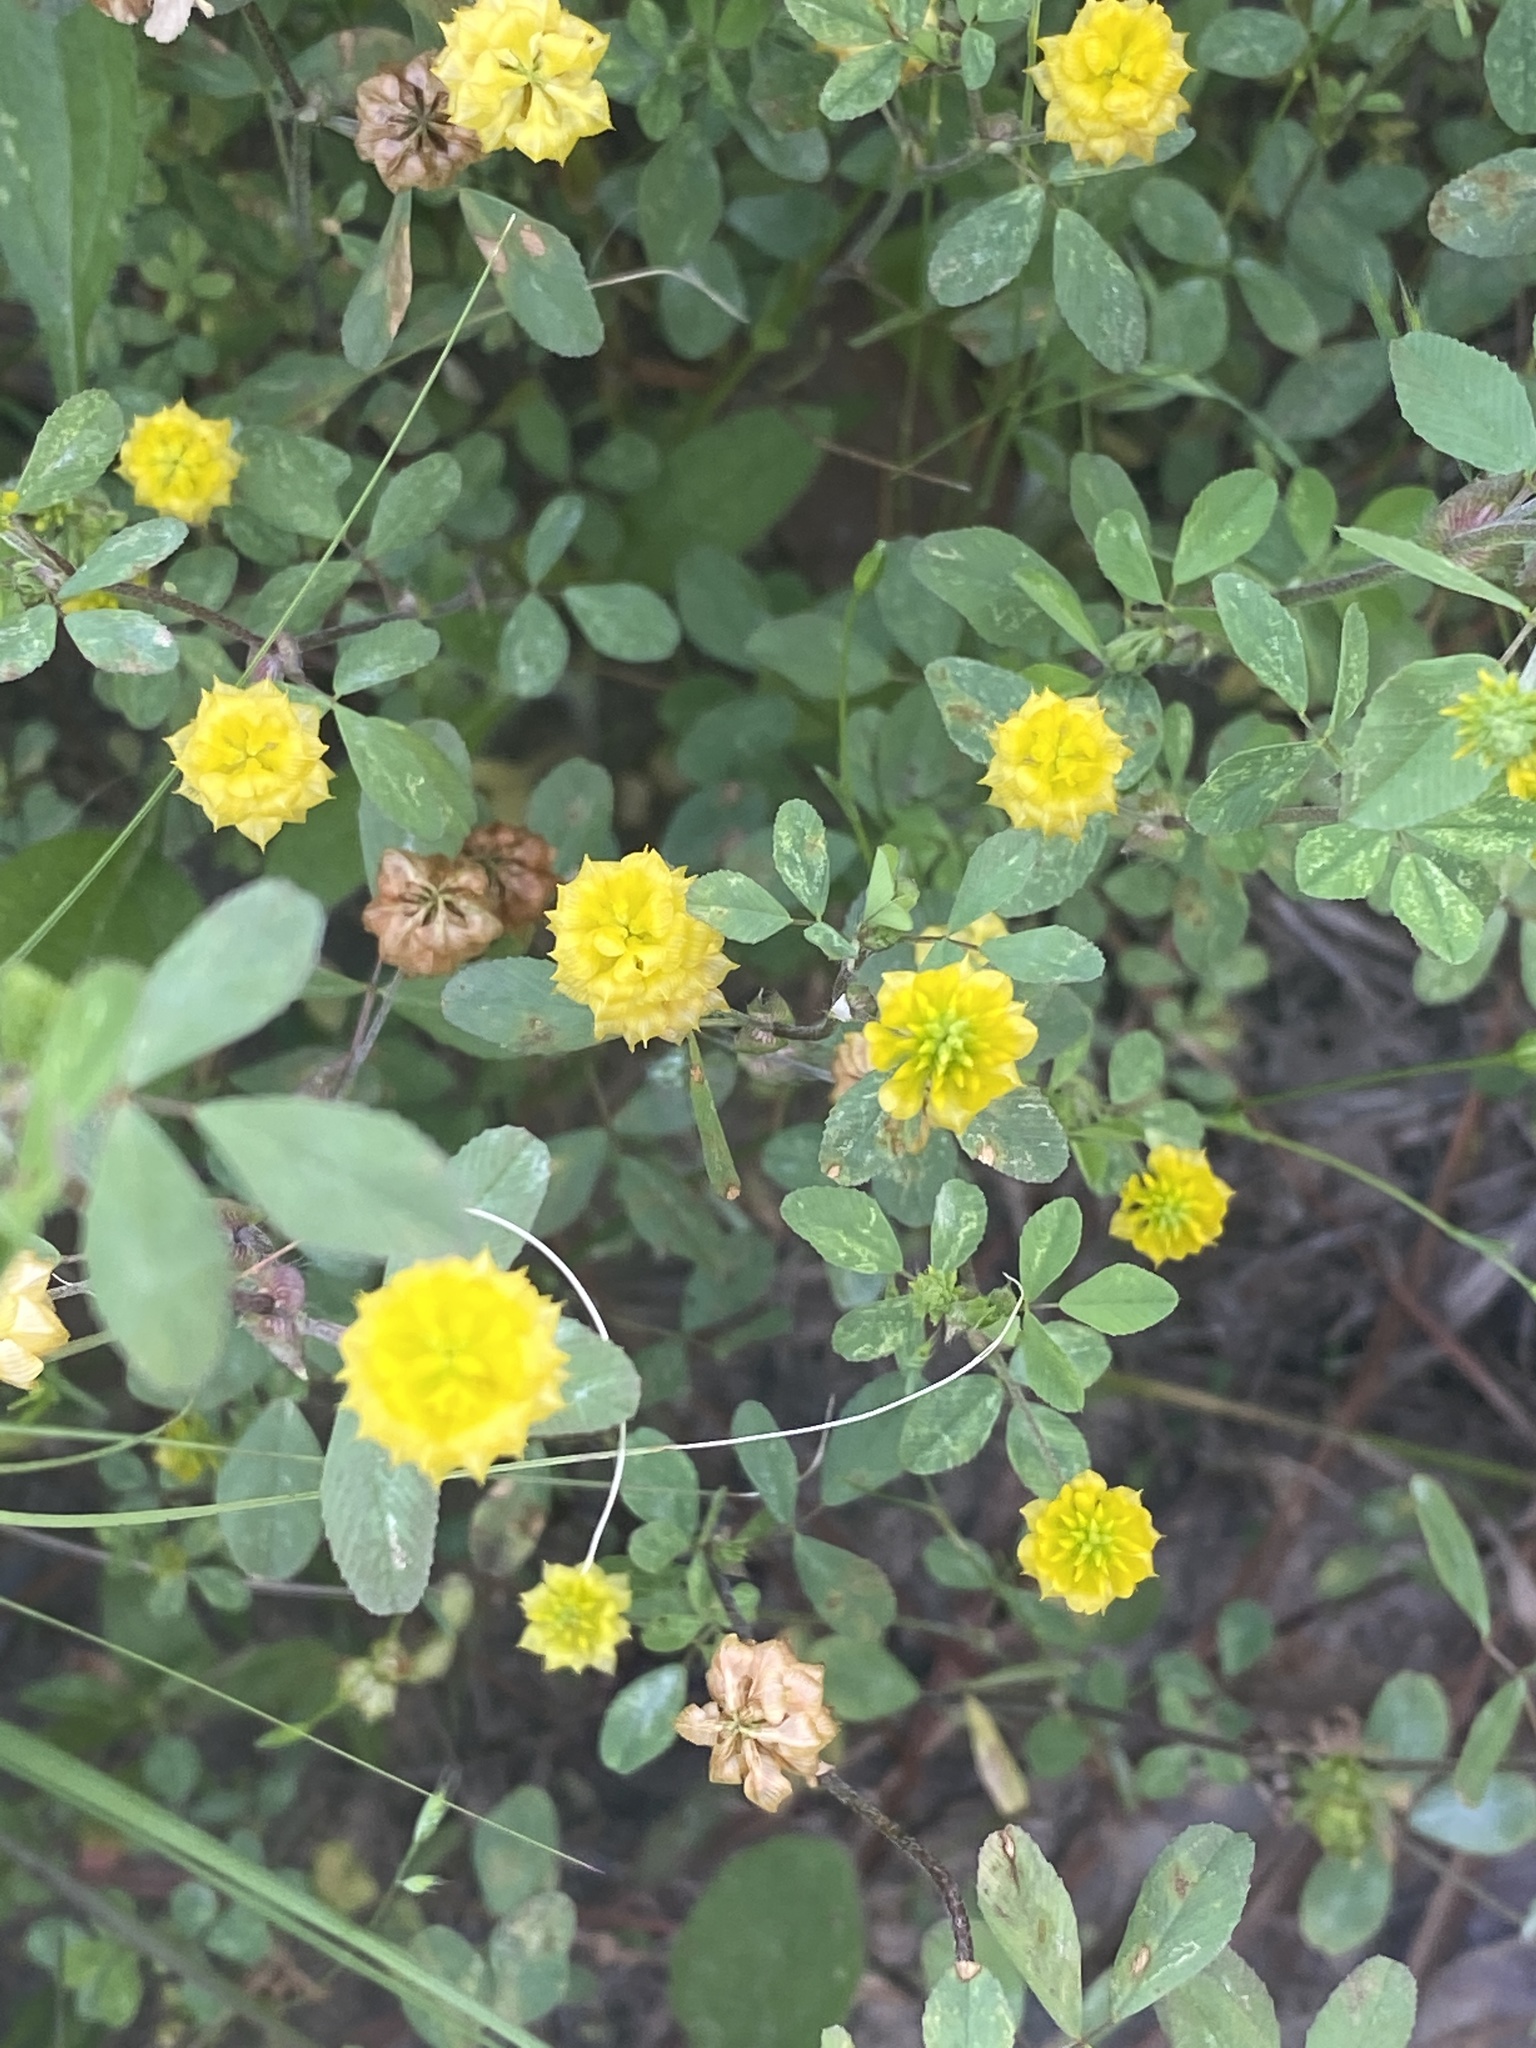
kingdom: Plantae
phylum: Tracheophyta
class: Magnoliopsida
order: Fabales
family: Fabaceae
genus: Trifolium
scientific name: Trifolium campestre
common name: Field clover
